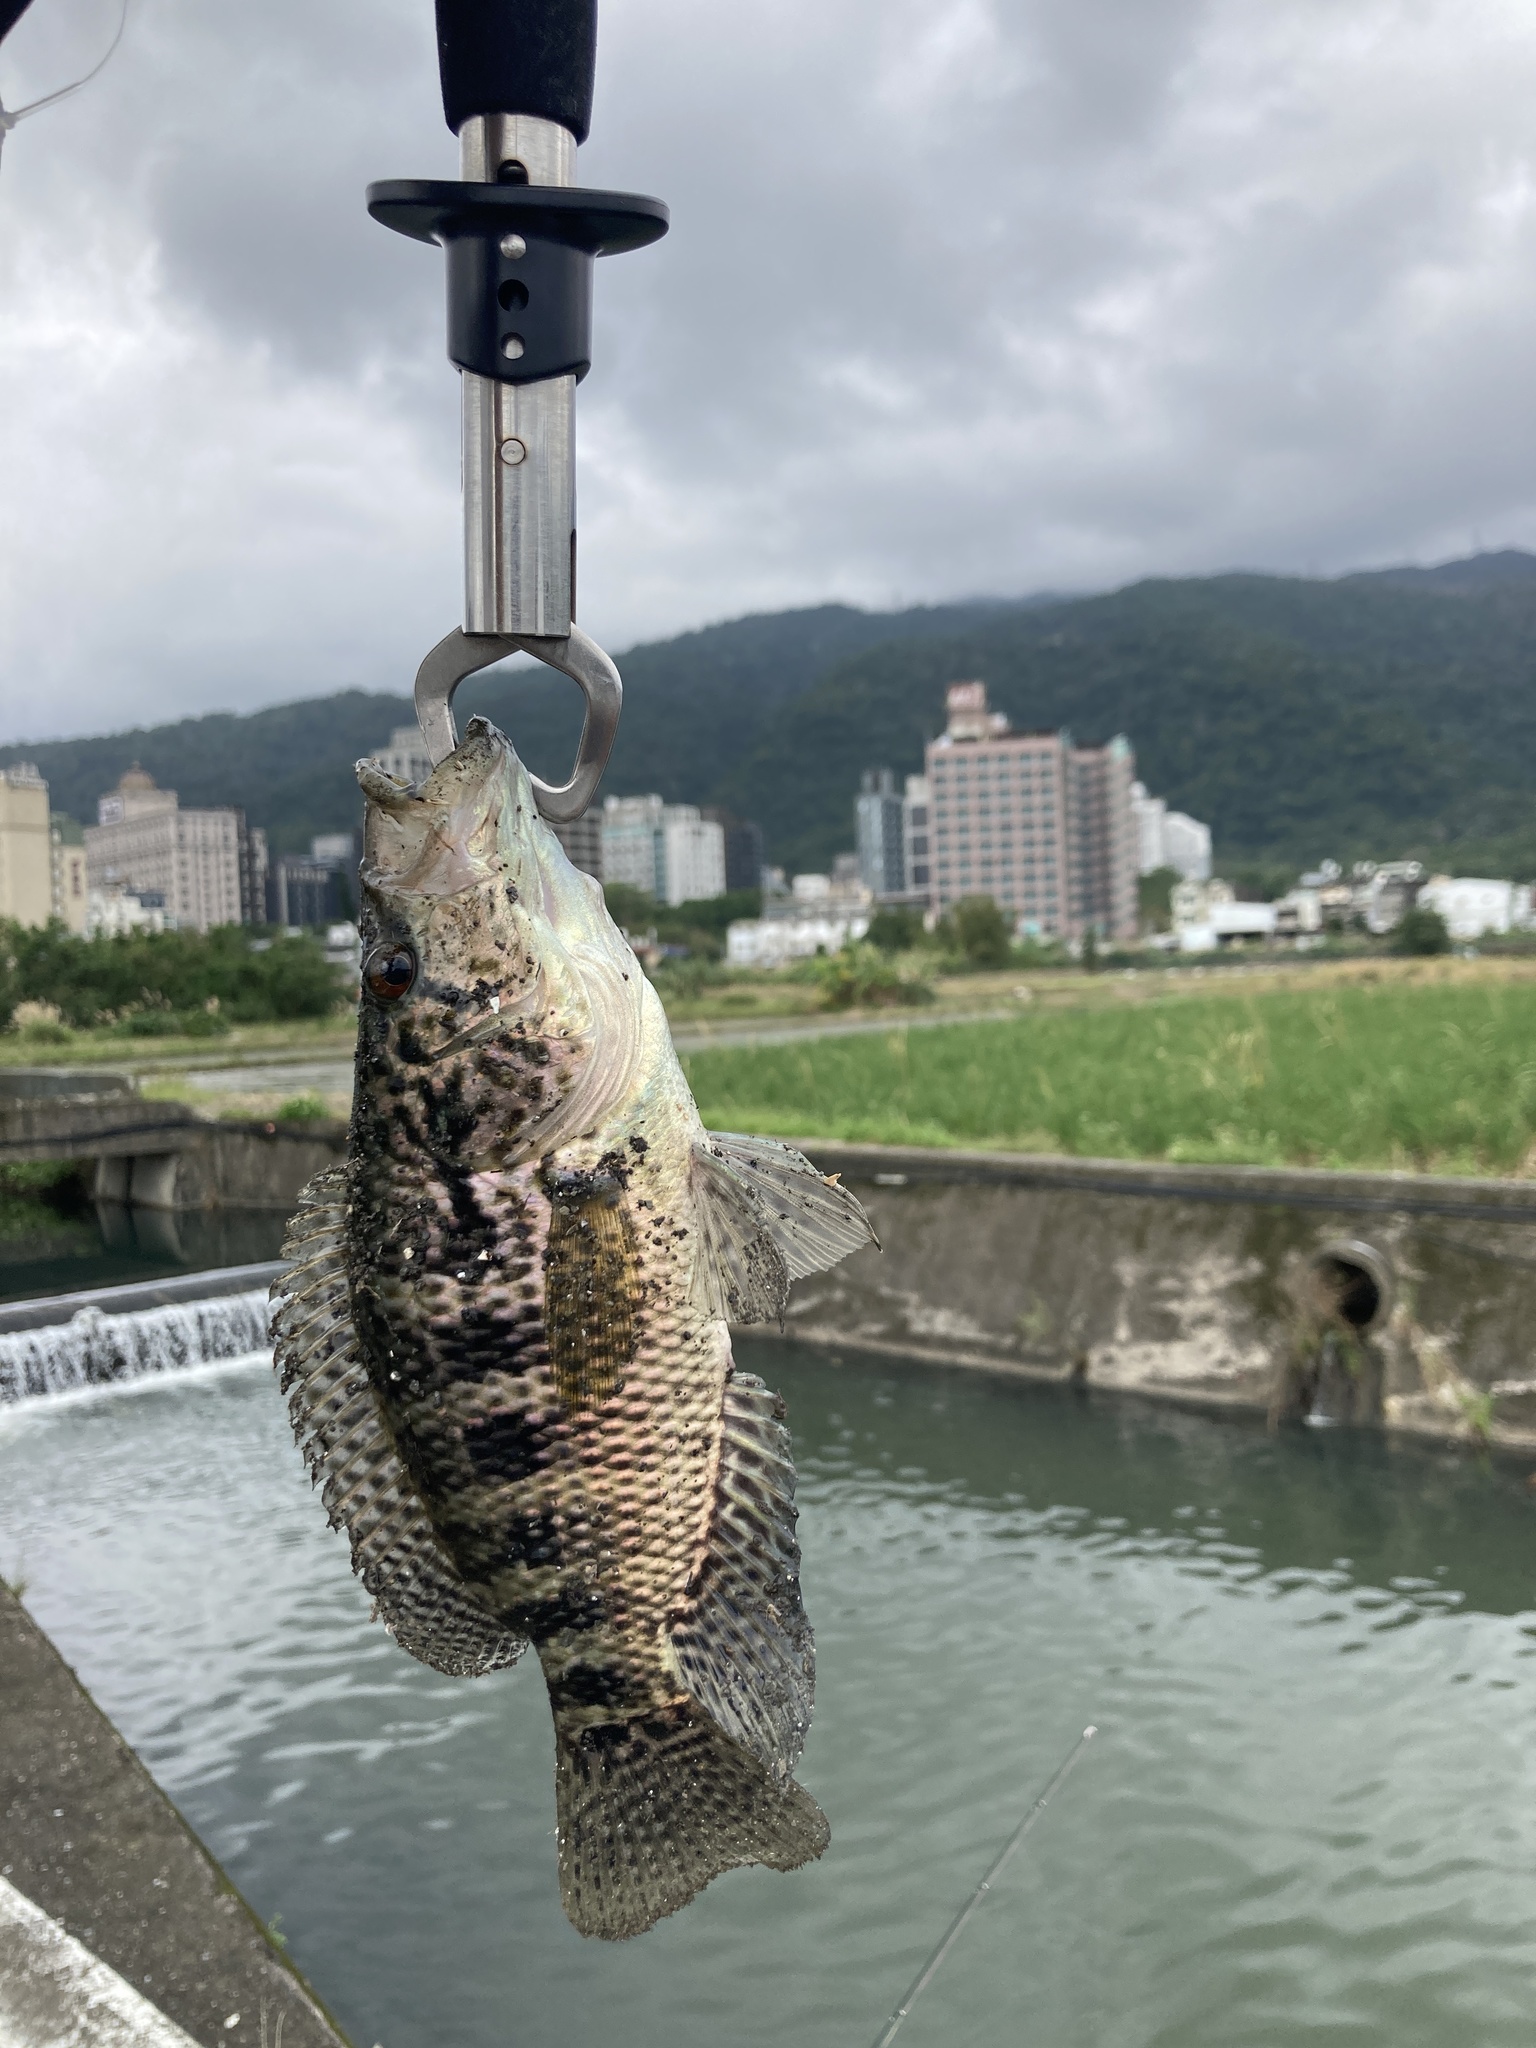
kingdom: Animalia
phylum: Chordata
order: Perciformes
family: Cichlidae
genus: Parachromis
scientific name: Parachromis managuensis
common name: Jaguar guapote
